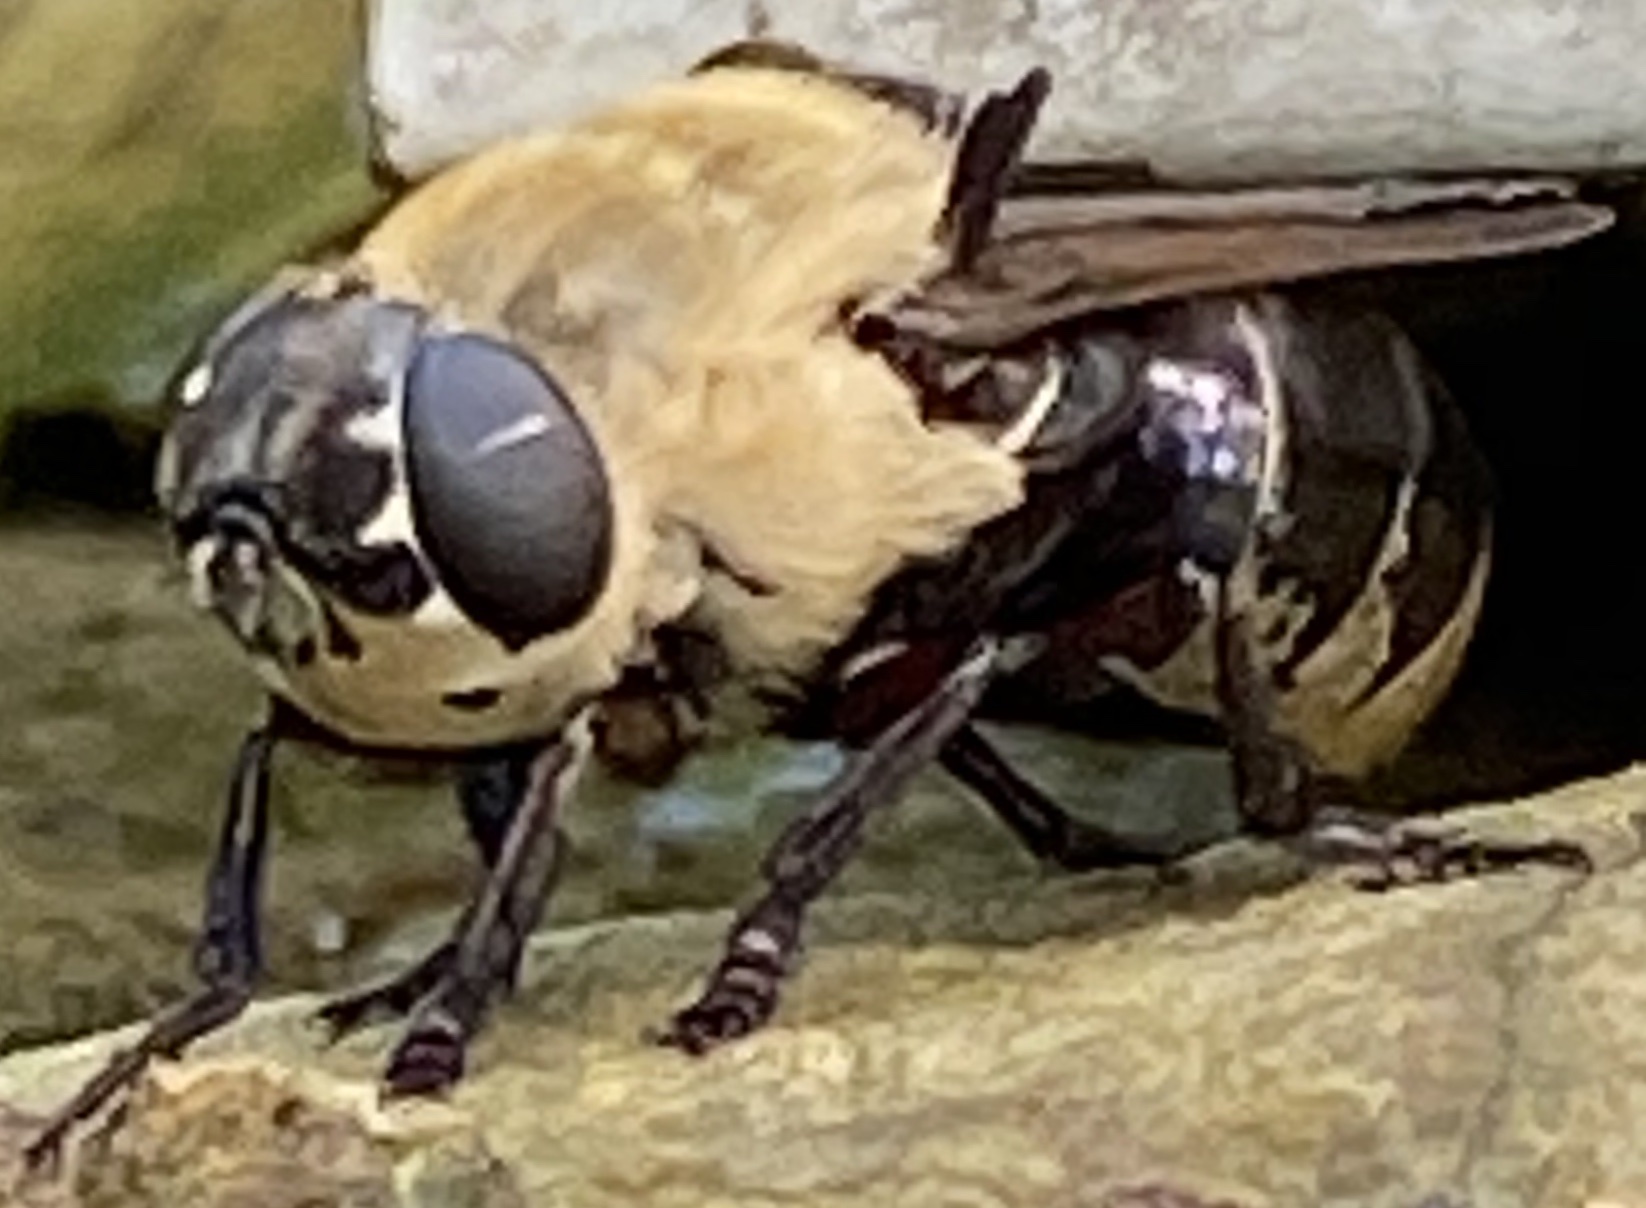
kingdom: Animalia
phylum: Arthropoda
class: Insecta
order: Diptera
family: Oestridae
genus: Cuterebra
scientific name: Cuterebra emasculator
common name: Squirrel bot fly
